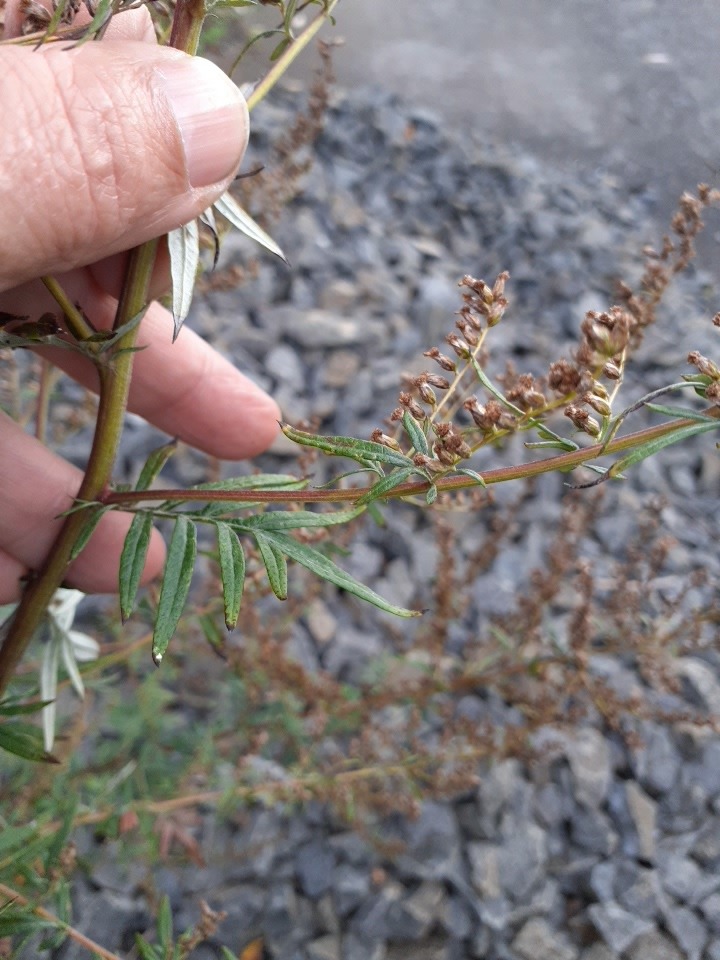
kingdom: Plantae
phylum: Tracheophyta
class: Magnoliopsida
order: Asterales
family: Asteraceae
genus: Artemisia
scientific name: Artemisia vulgaris
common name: Mugwort
